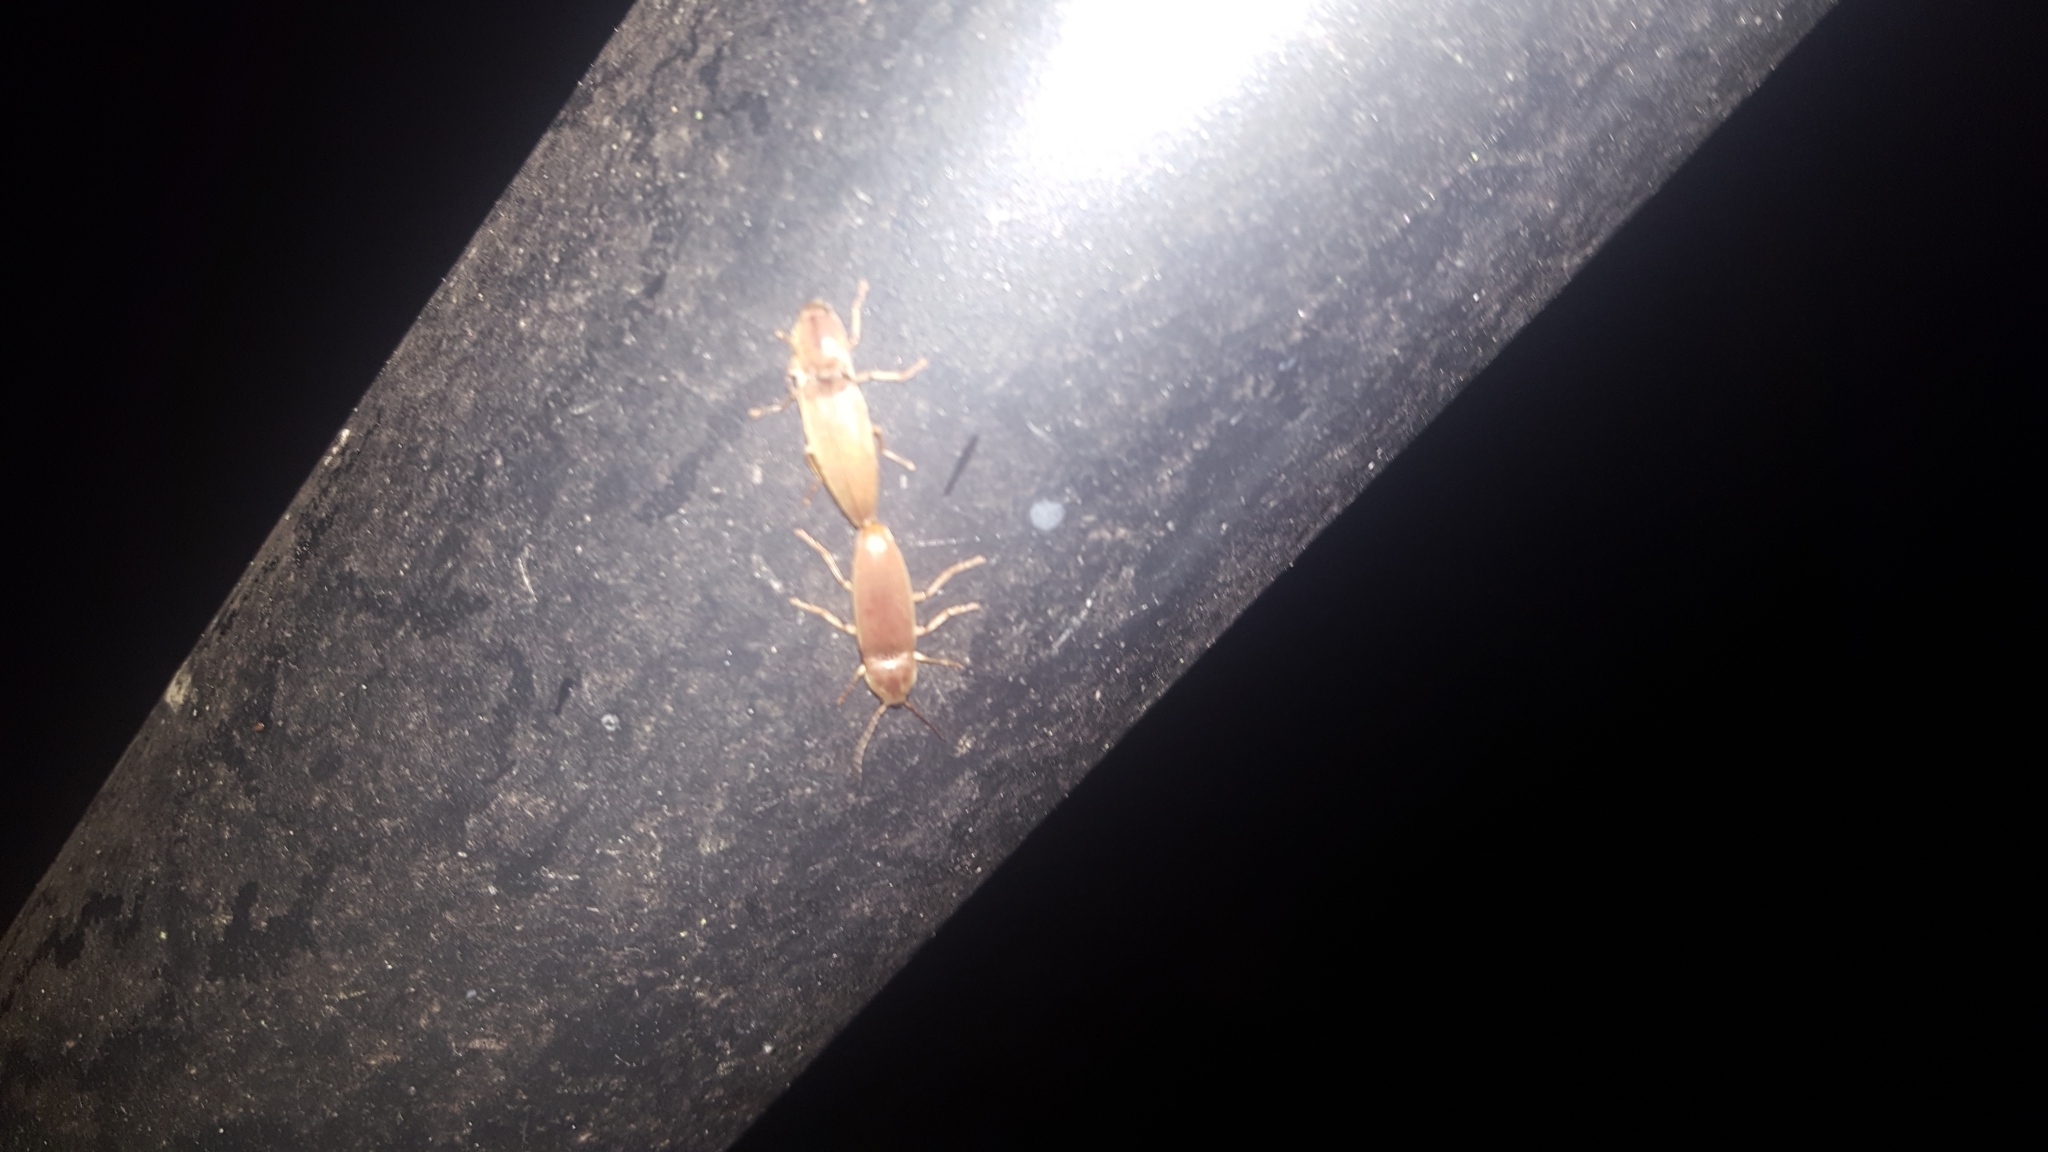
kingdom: Animalia
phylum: Arthropoda
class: Insecta
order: Coleoptera
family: Elateridae
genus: Monocrepidius
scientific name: Monocrepidius lividus
